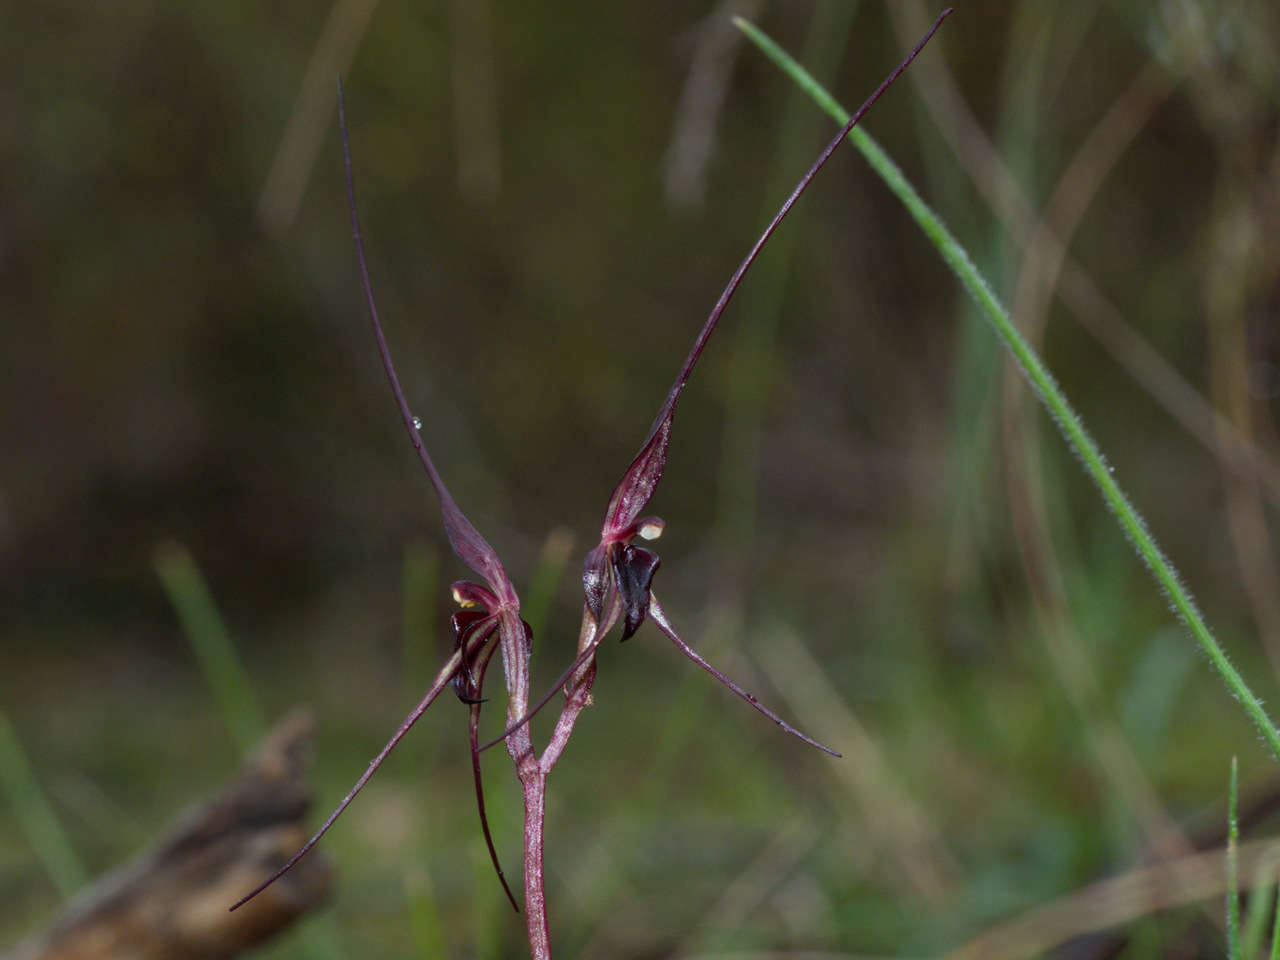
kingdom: Plantae
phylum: Tracheophyta
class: Liliopsida
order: Asparagales
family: Orchidaceae
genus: Acianthus
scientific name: Acianthus caudatus
